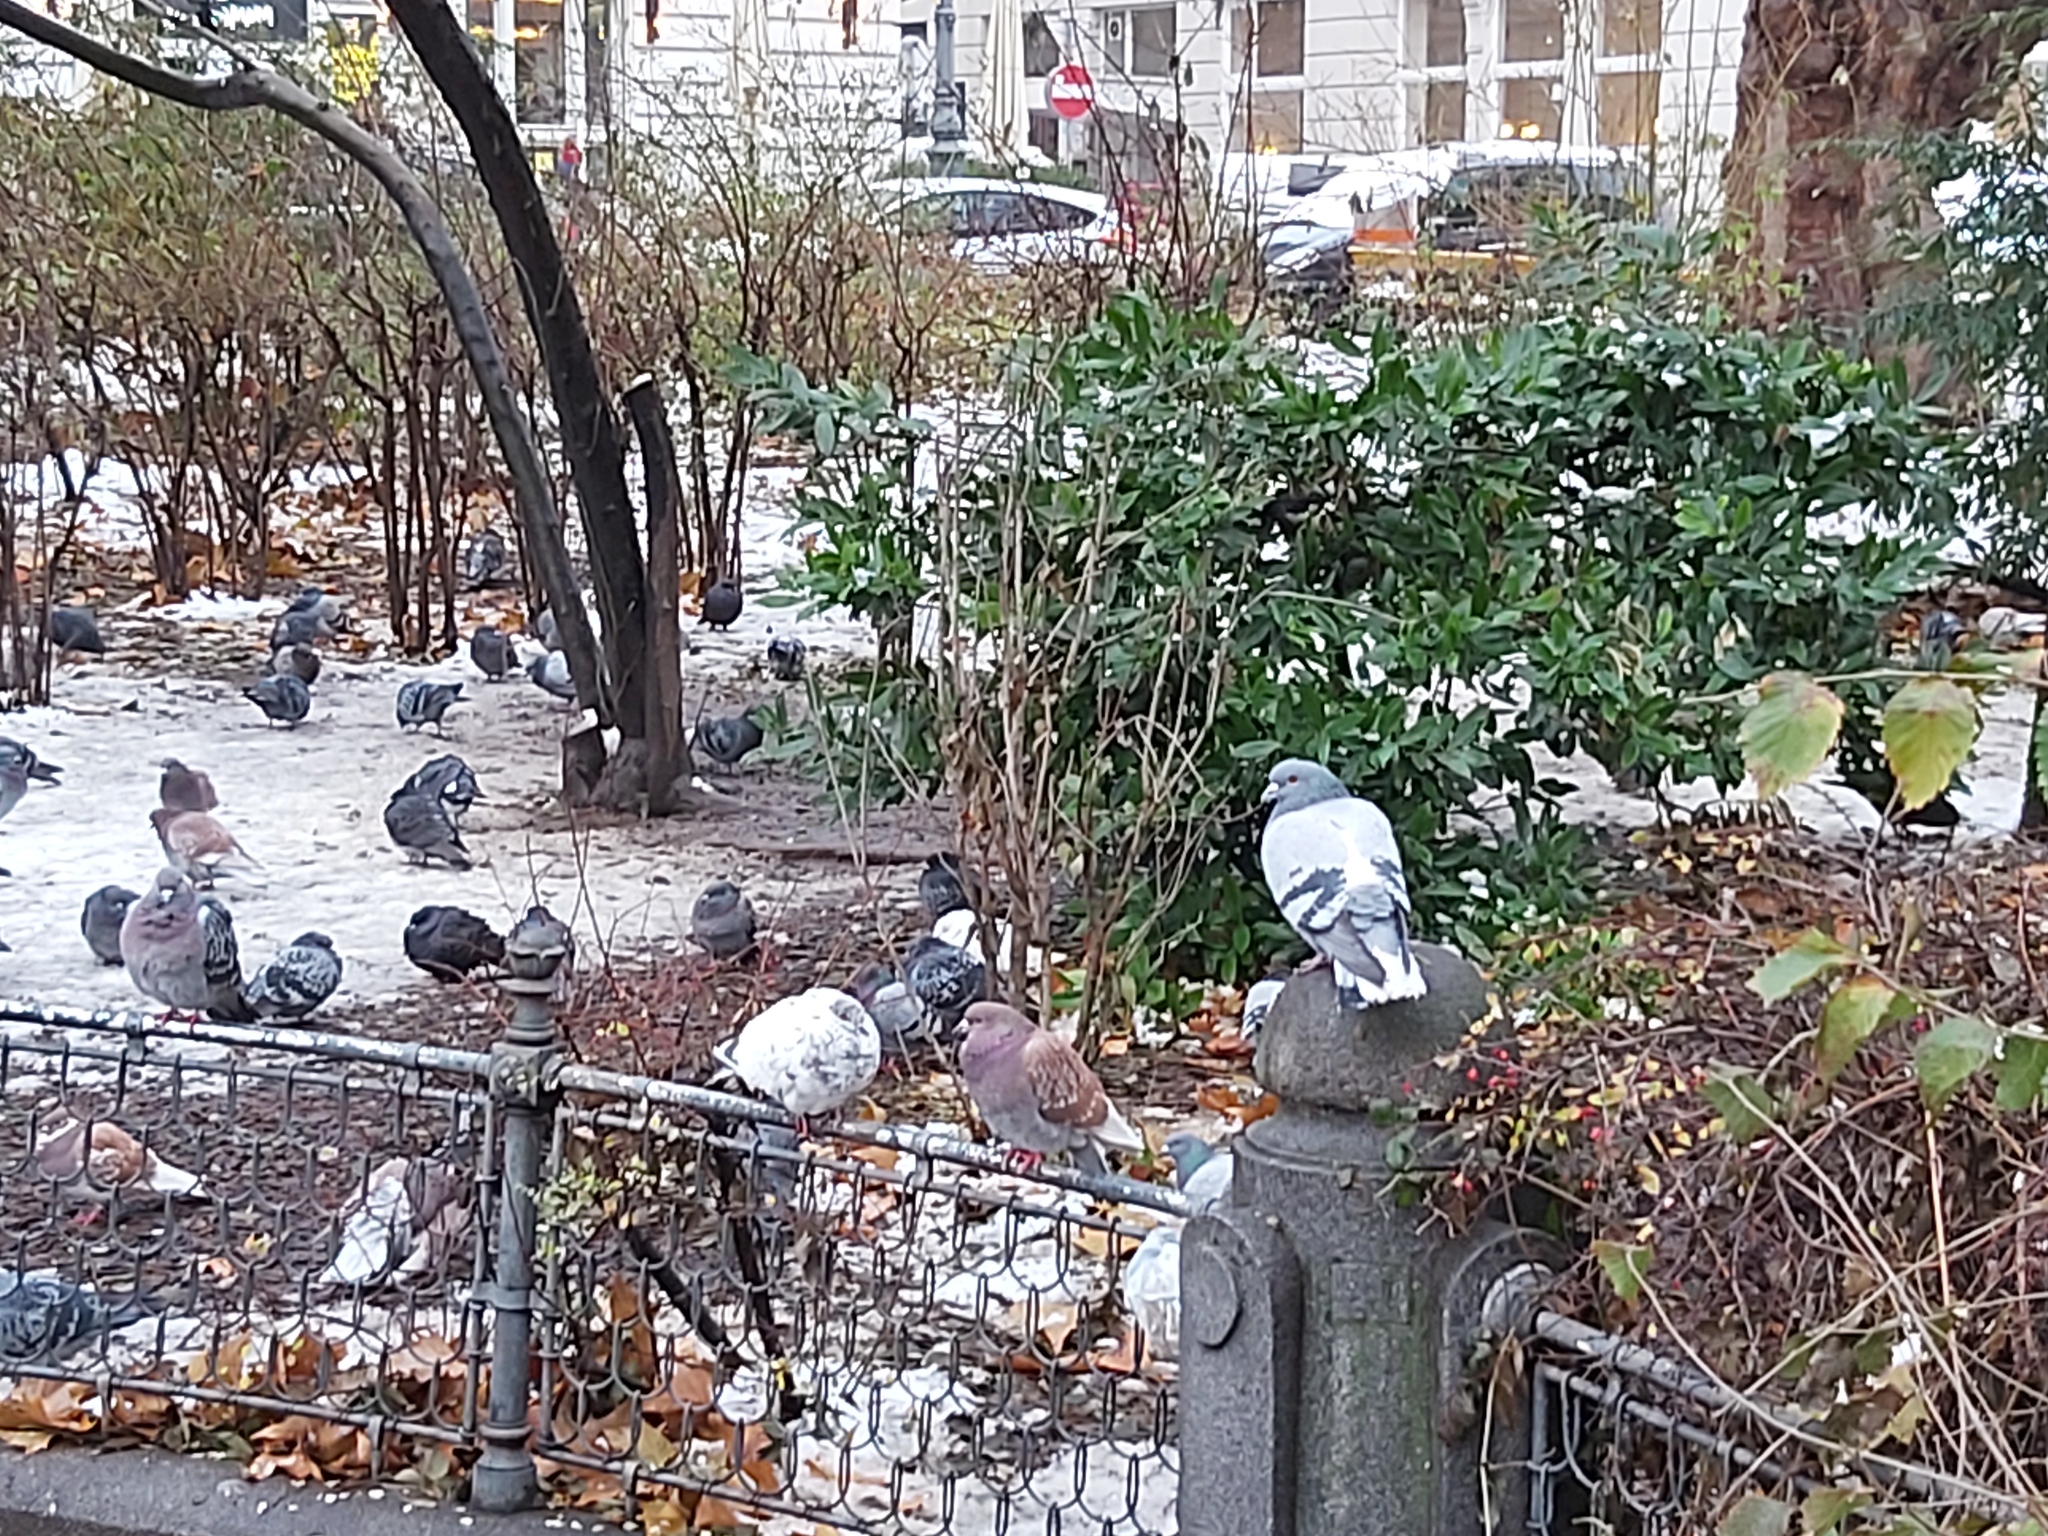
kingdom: Animalia
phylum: Chordata
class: Aves
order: Columbiformes
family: Columbidae
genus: Columba
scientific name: Columba livia
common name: Rock pigeon
